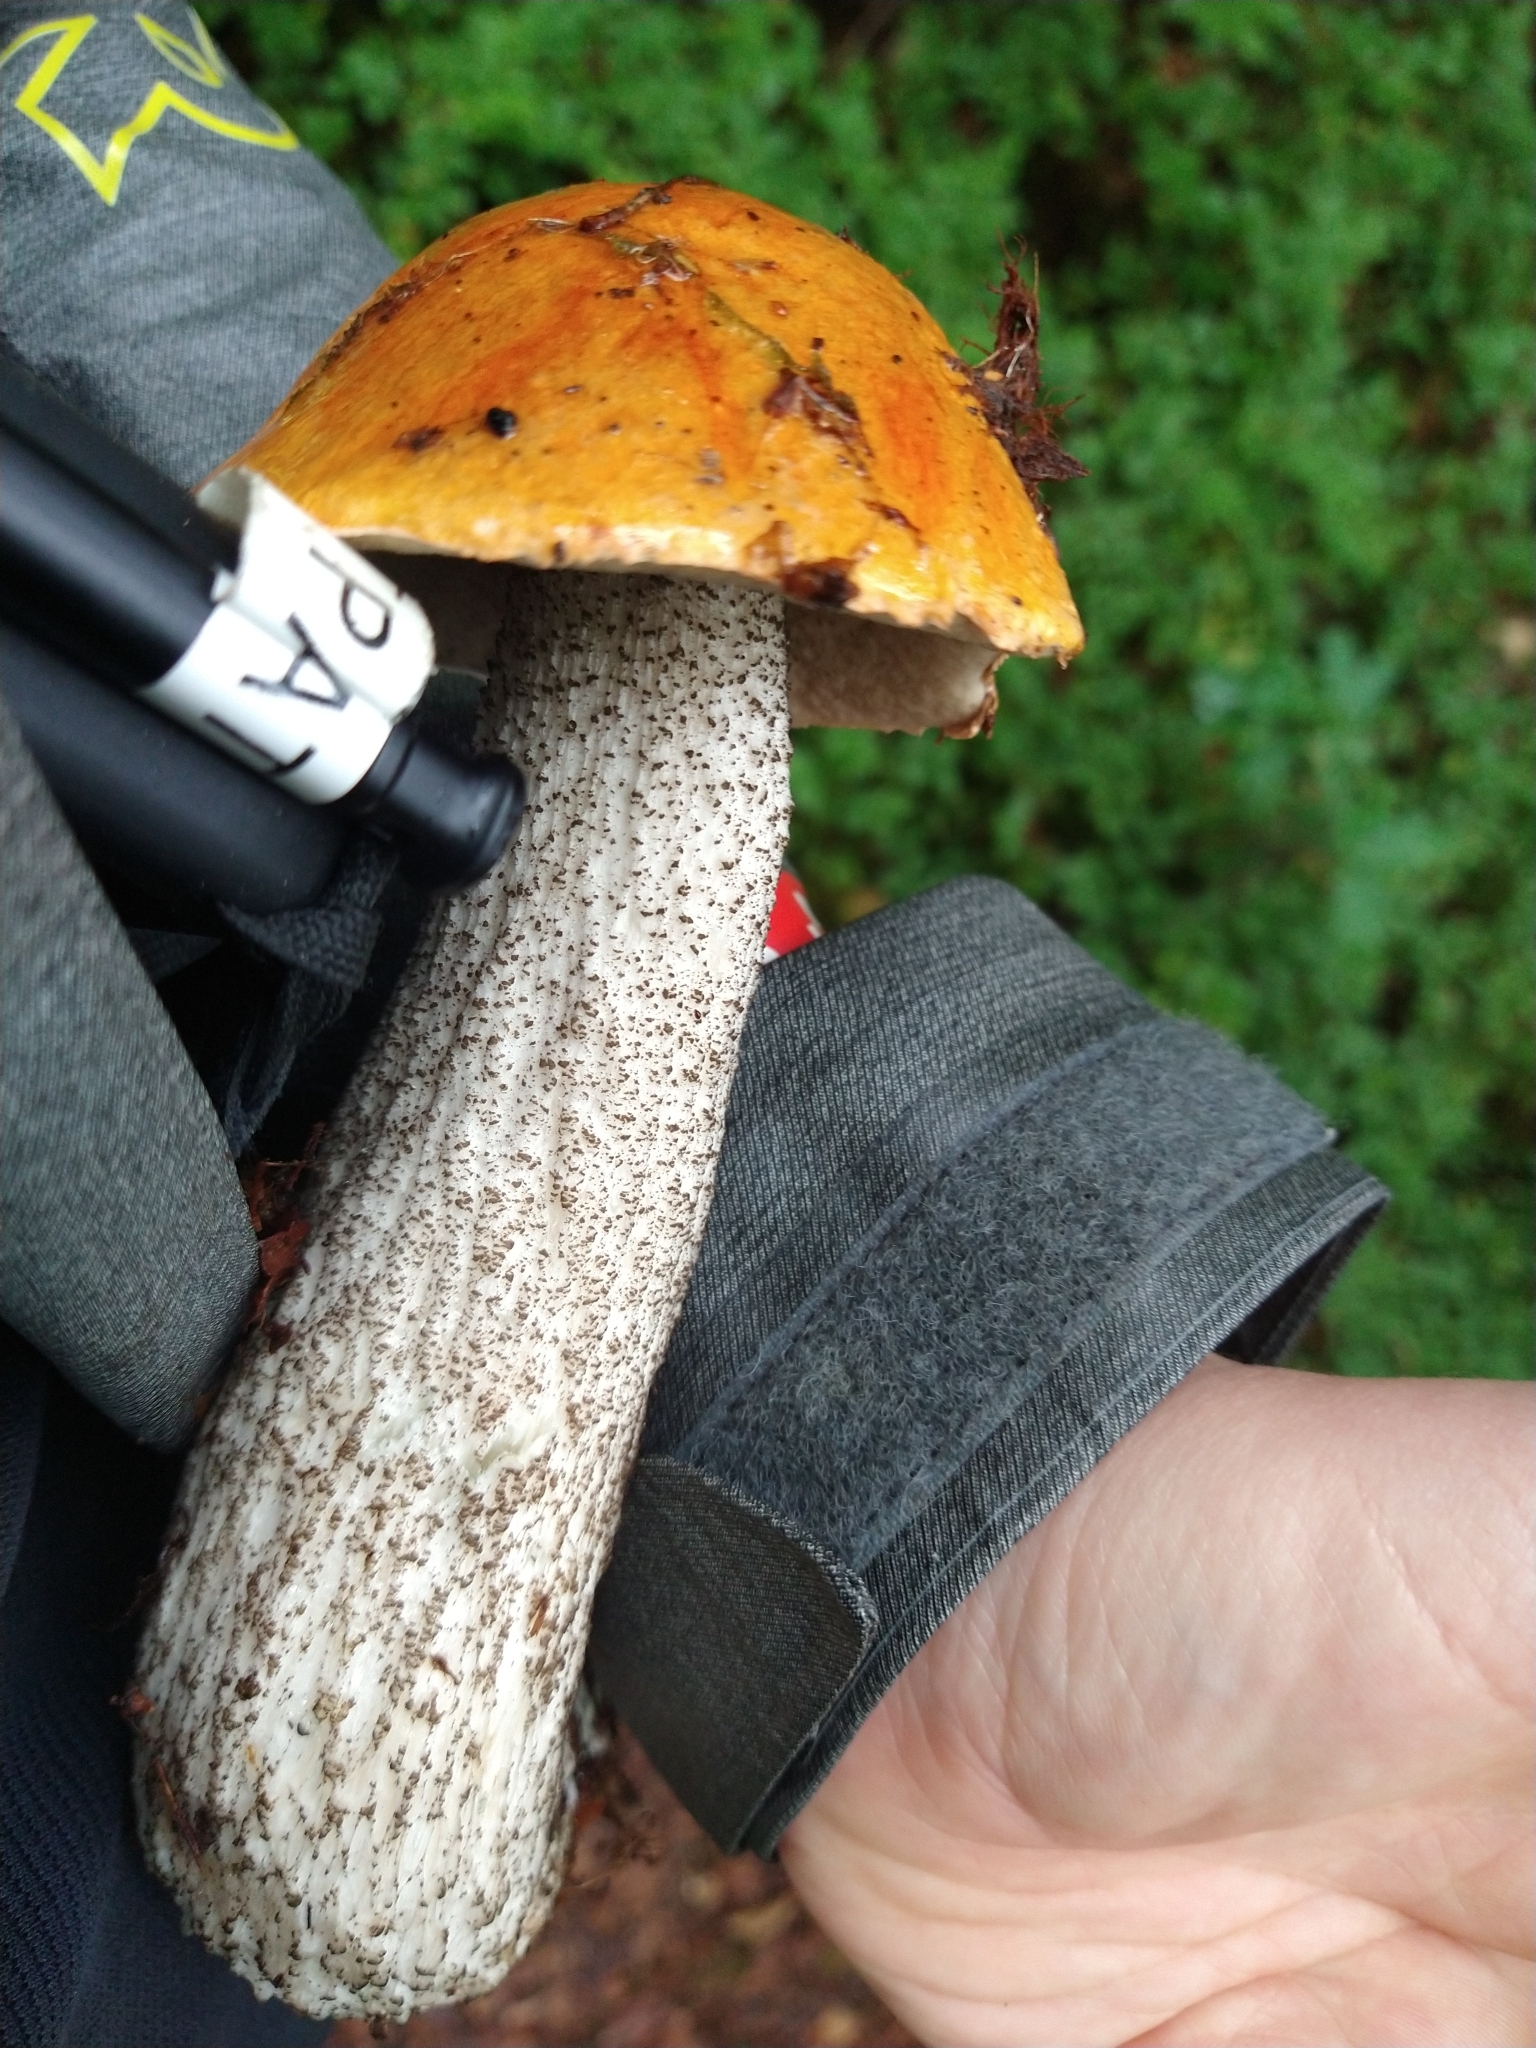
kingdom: Fungi
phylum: Basidiomycota
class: Agaricomycetes
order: Boletales
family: Boletaceae
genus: Leccinum
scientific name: Leccinum versipelle
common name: Orange birch bolete
